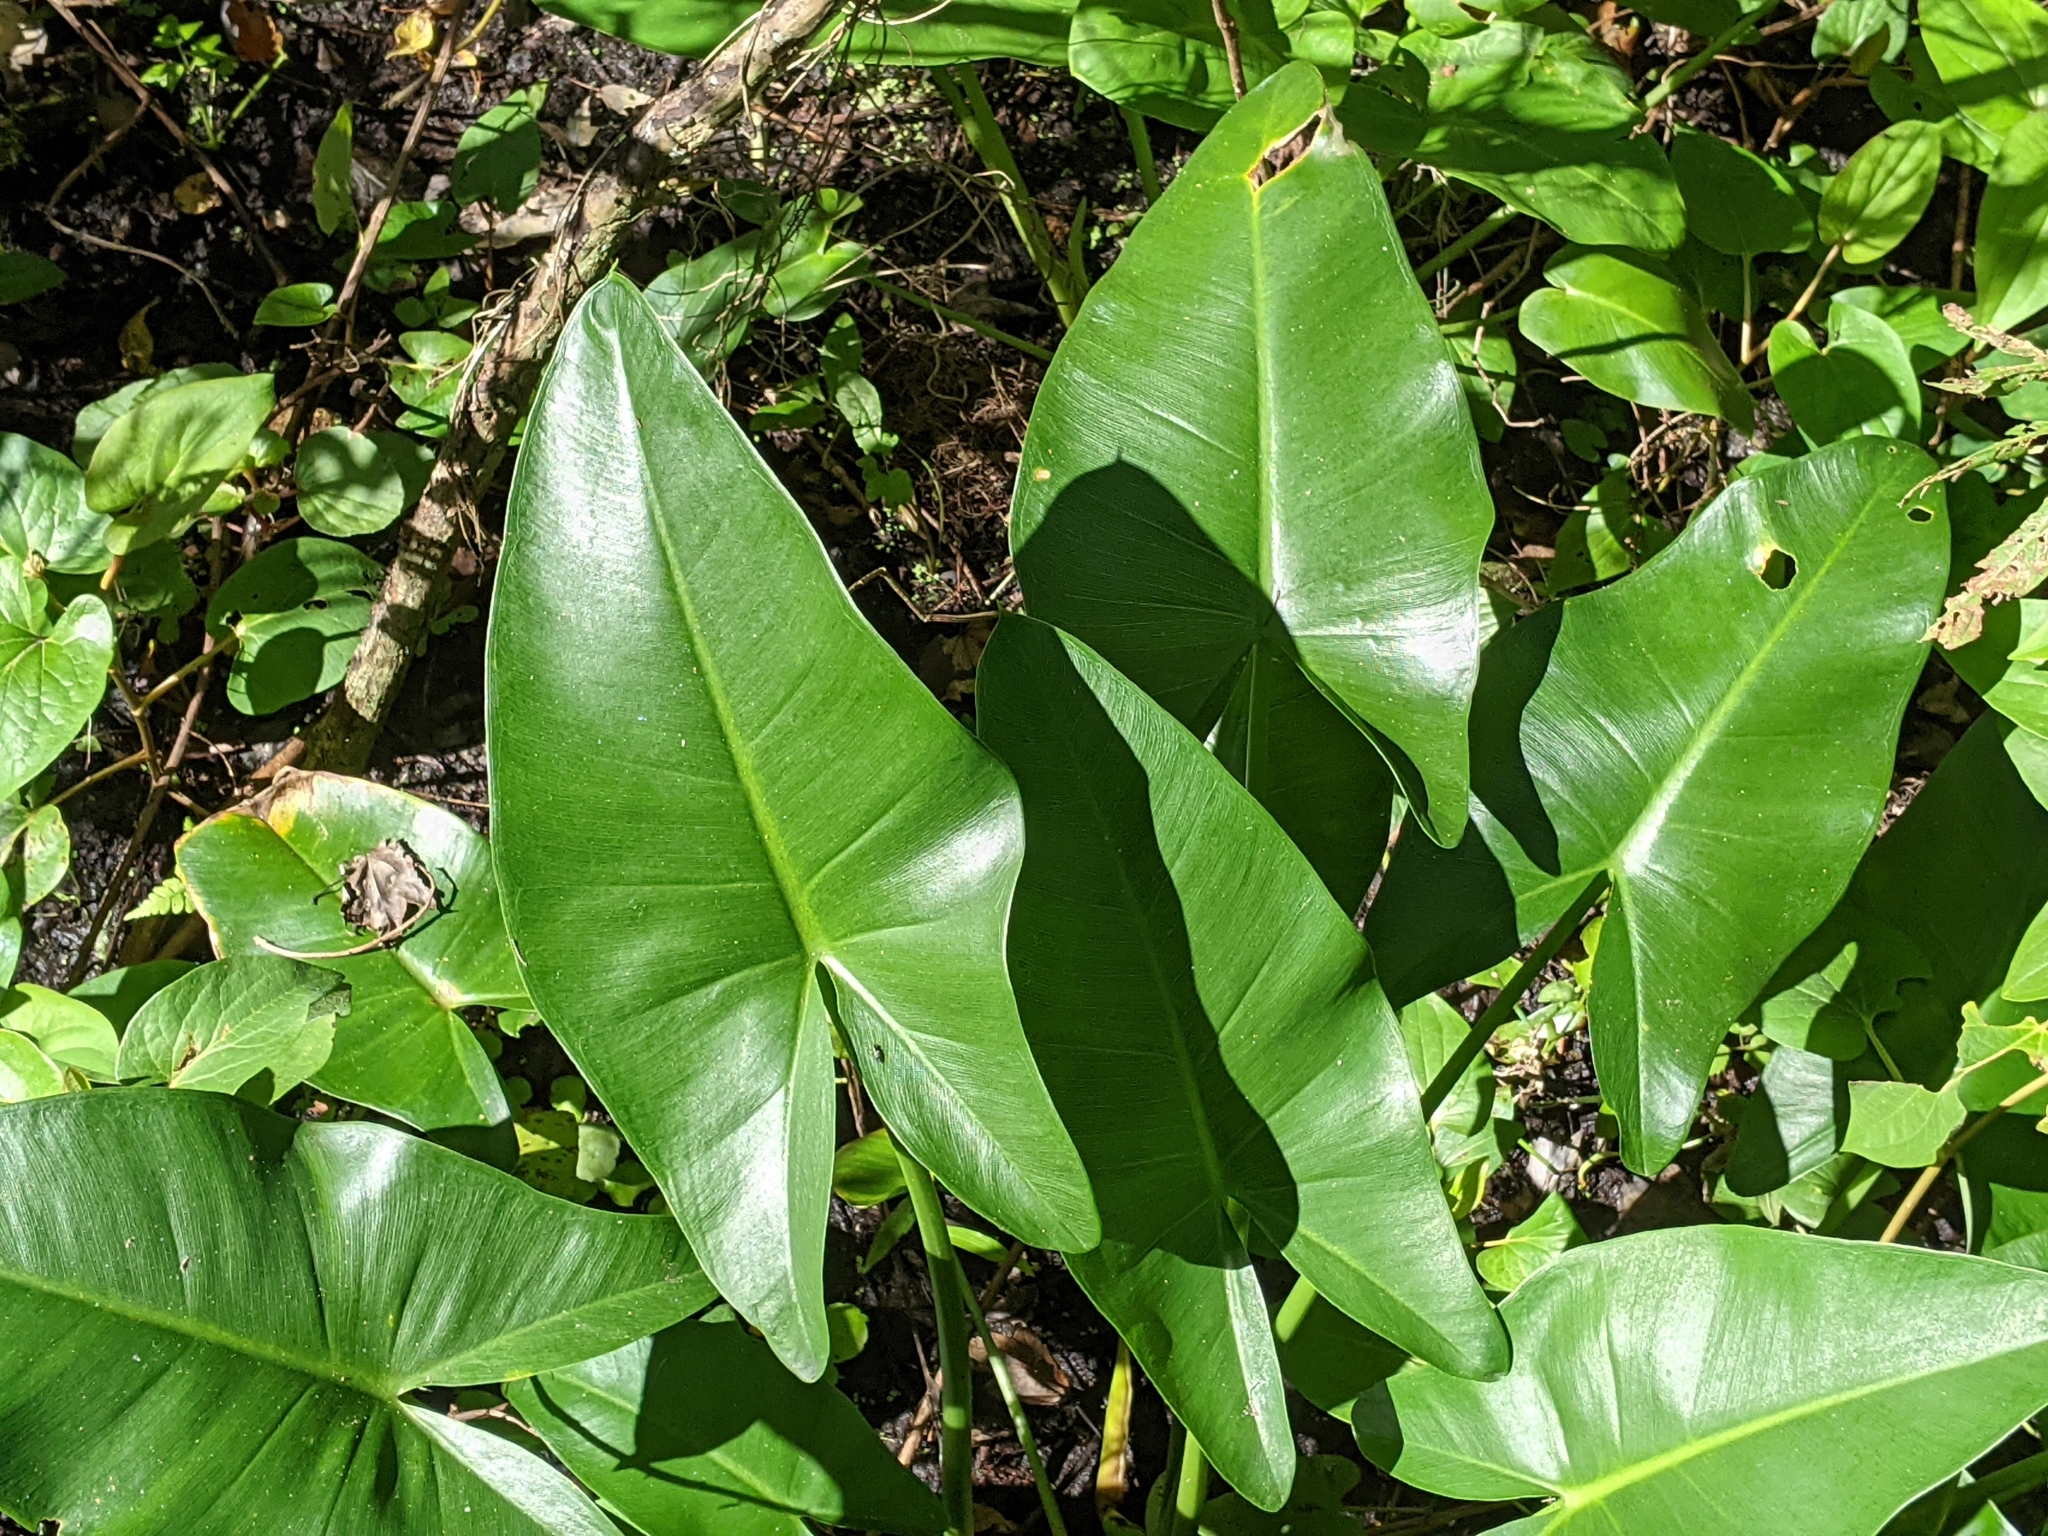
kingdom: Plantae
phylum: Tracheophyta
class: Liliopsida
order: Alismatales
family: Araceae
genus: Peltandra
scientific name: Peltandra virginica
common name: Arrow arum
